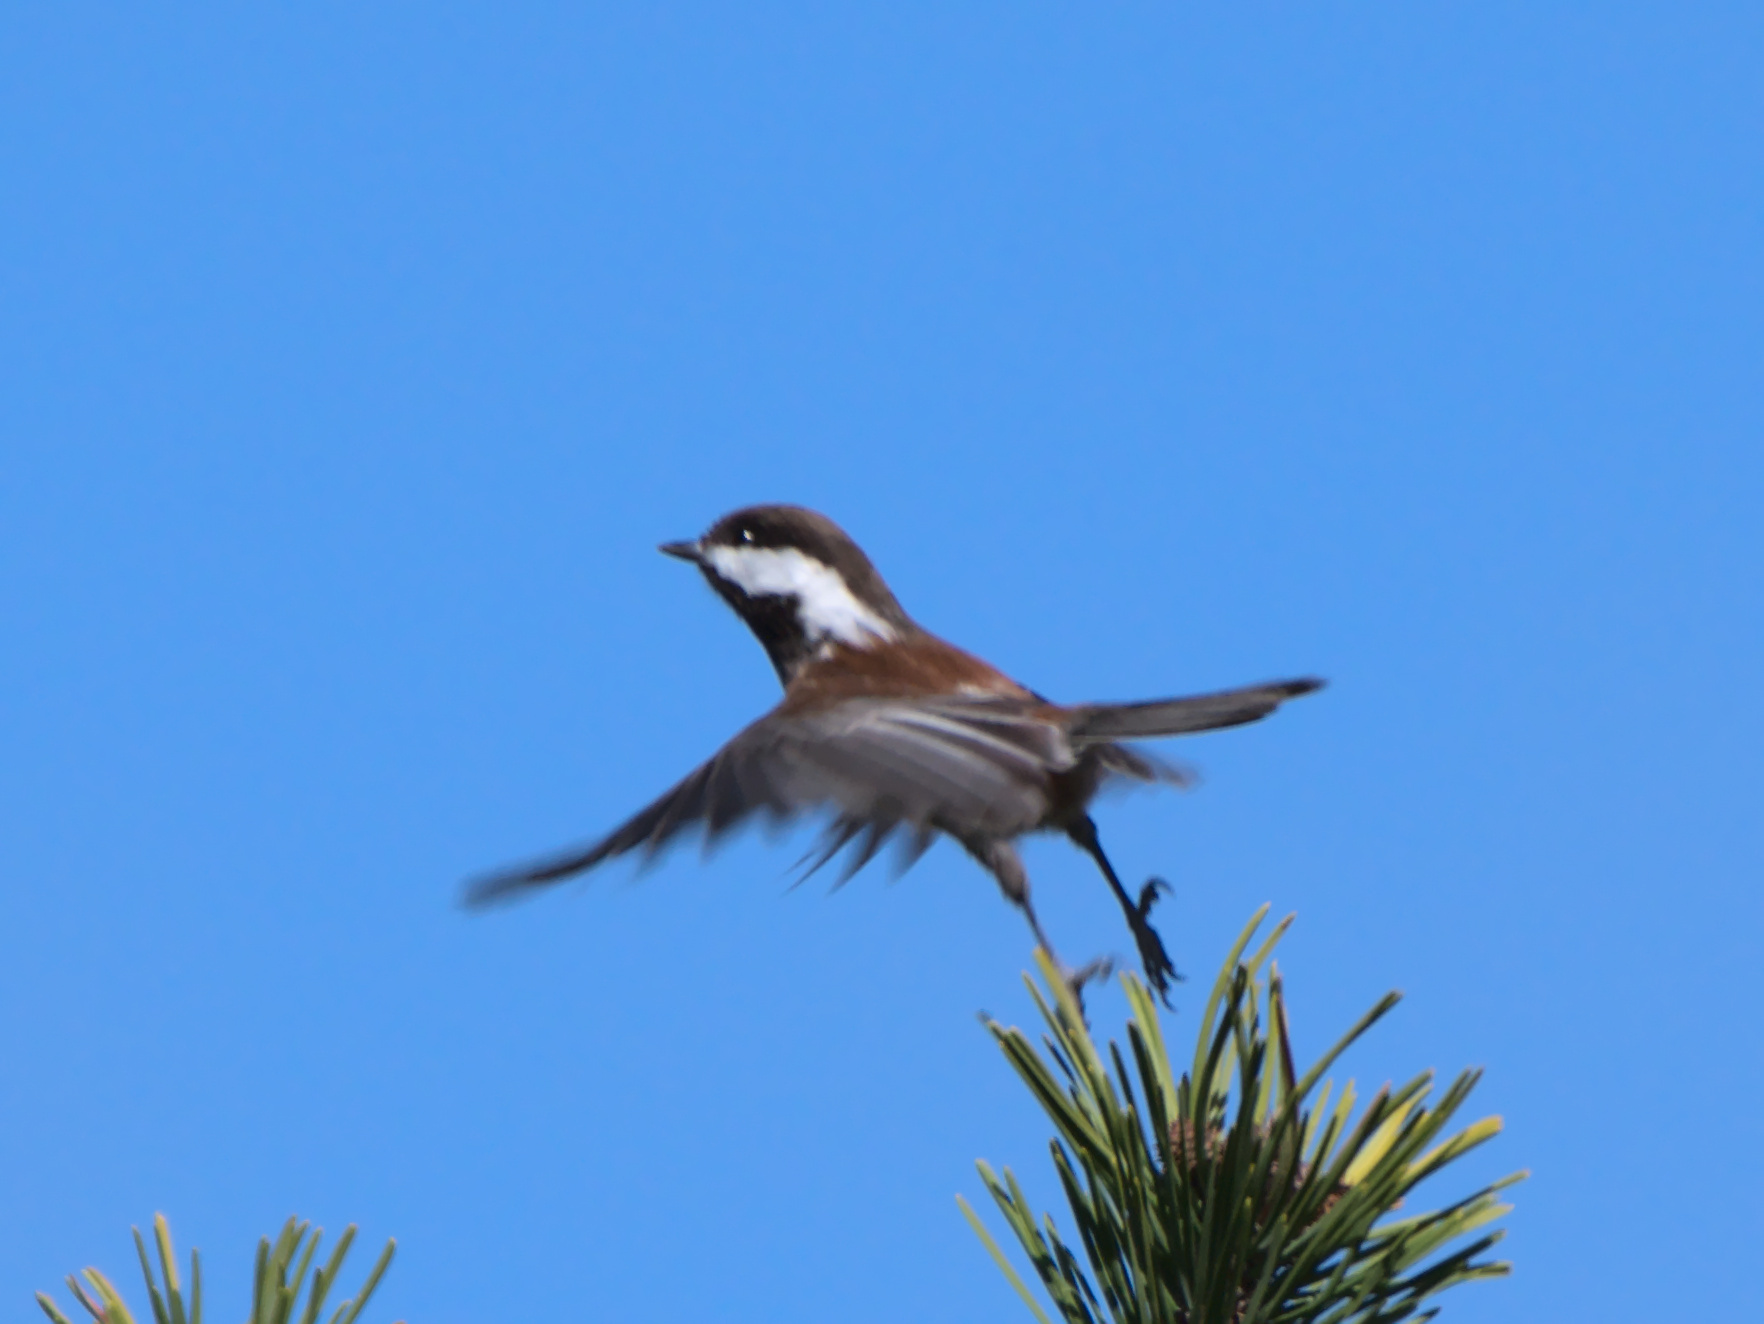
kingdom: Animalia
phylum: Chordata
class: Aves
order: Passeriformes
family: Paridae
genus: Poecile
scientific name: Poecile rufescens
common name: Chestnut-backed chickadee
